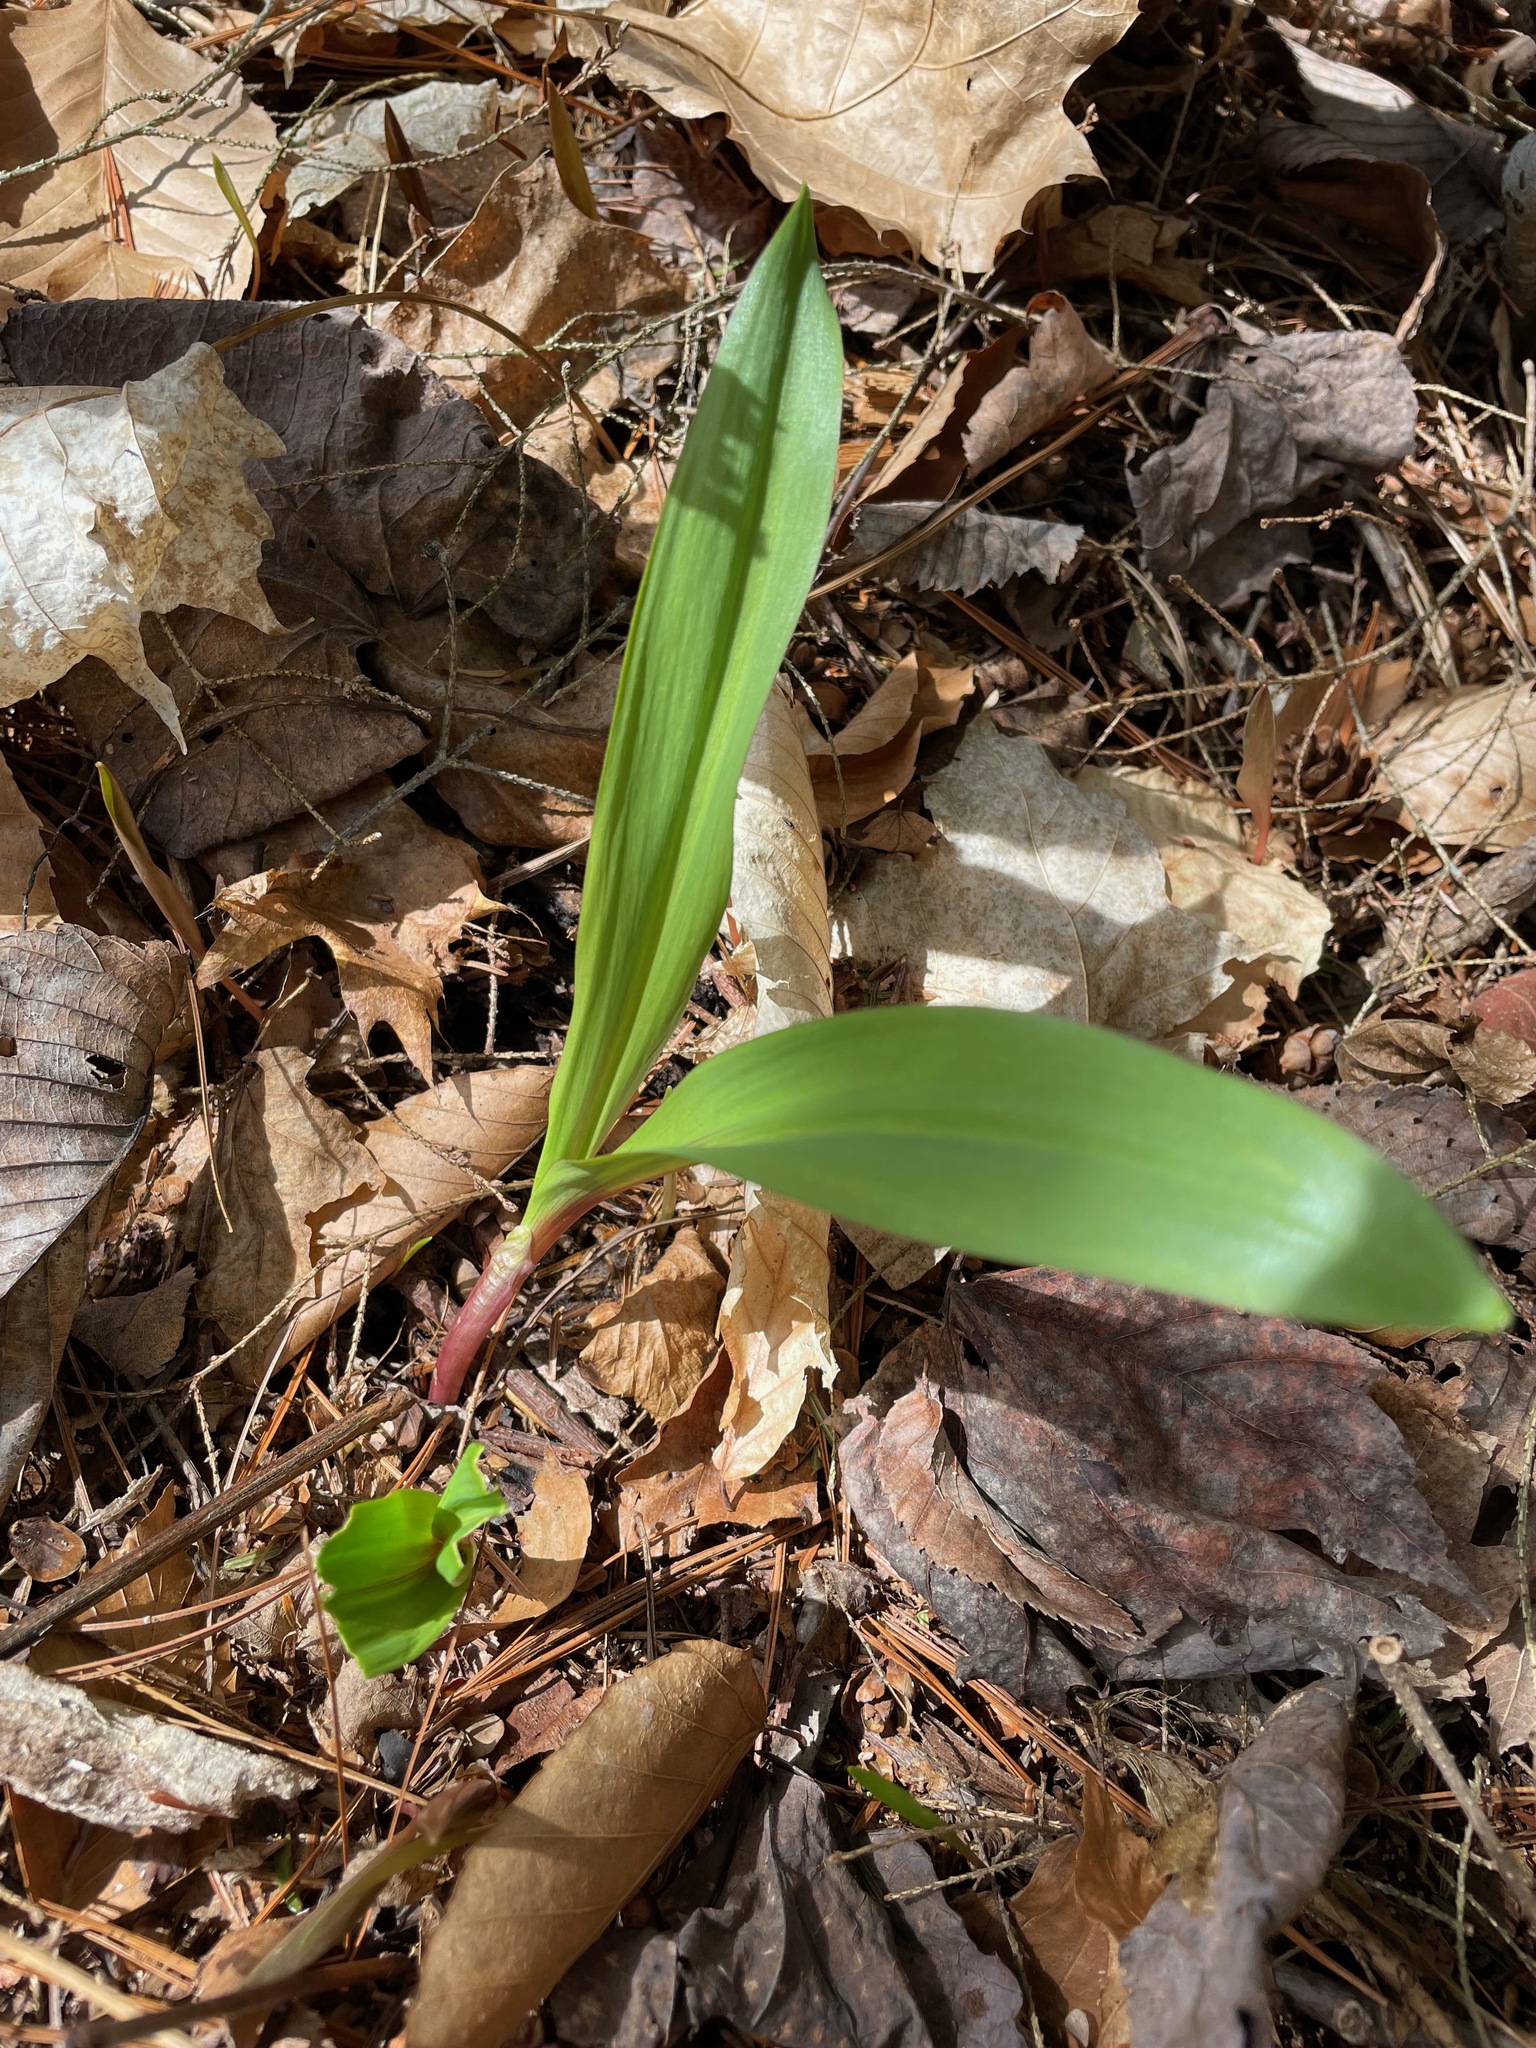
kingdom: Plantae
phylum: Tracheophyta
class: Liliopsida
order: Asparagales
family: Amaryllidaceae
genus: Allium
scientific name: Allium tricoccum
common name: Ramp
